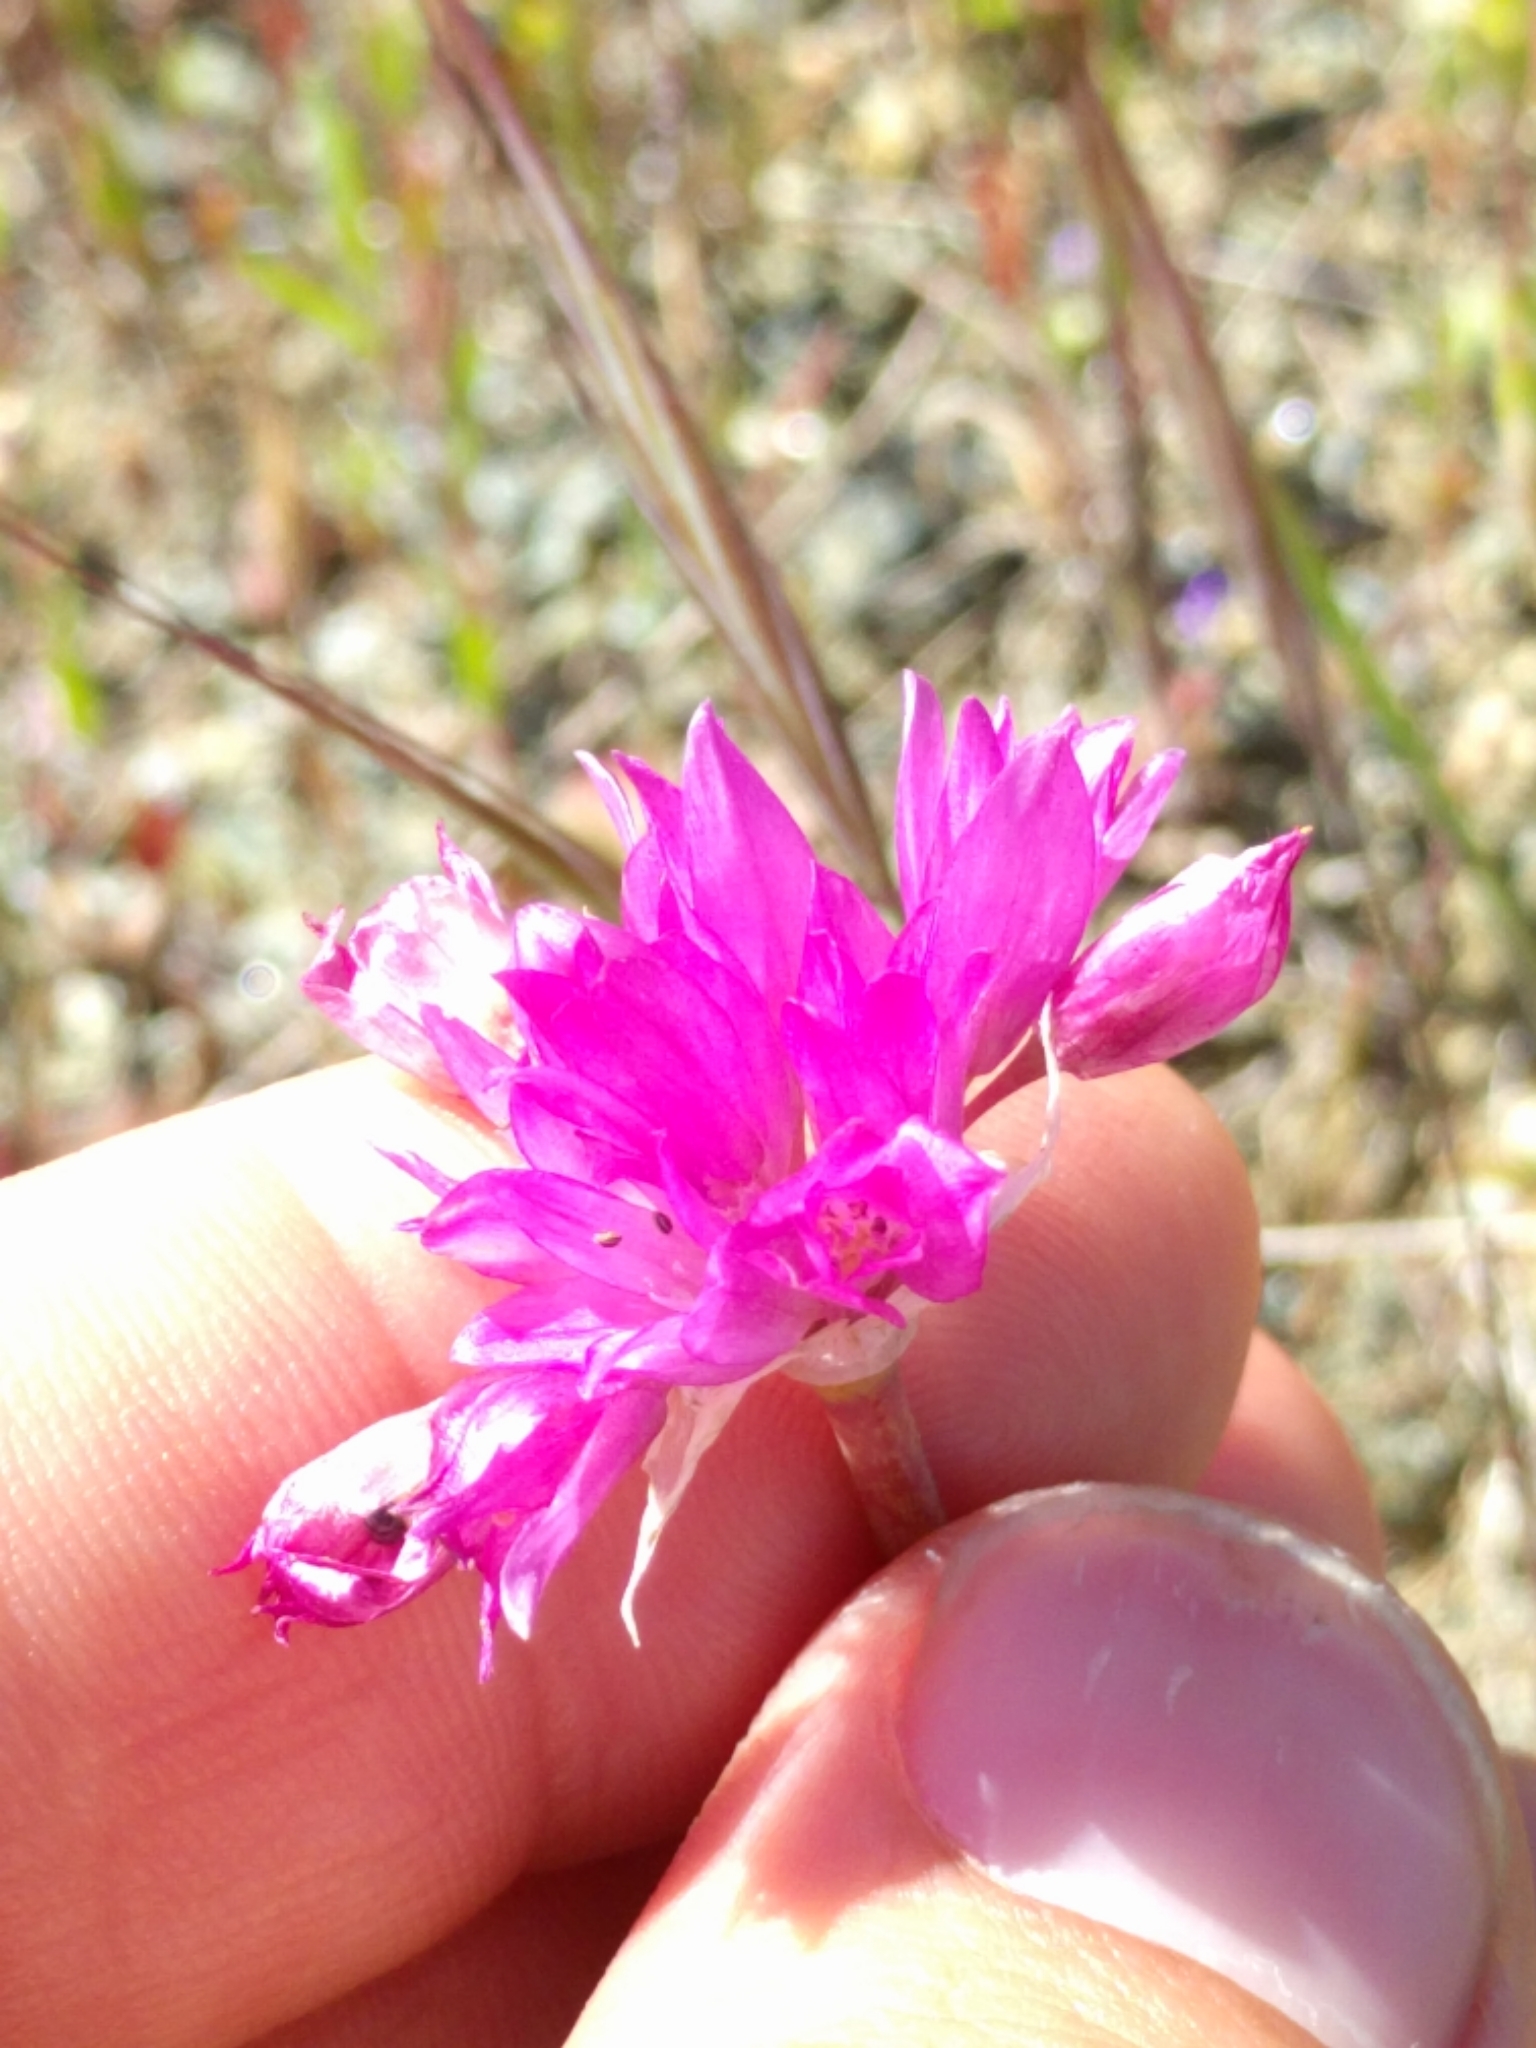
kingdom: Plantae
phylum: Tracheophyta
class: Liliopsida
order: Asparagales
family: Amaryllidaceae
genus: Allium
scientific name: Allium serra
